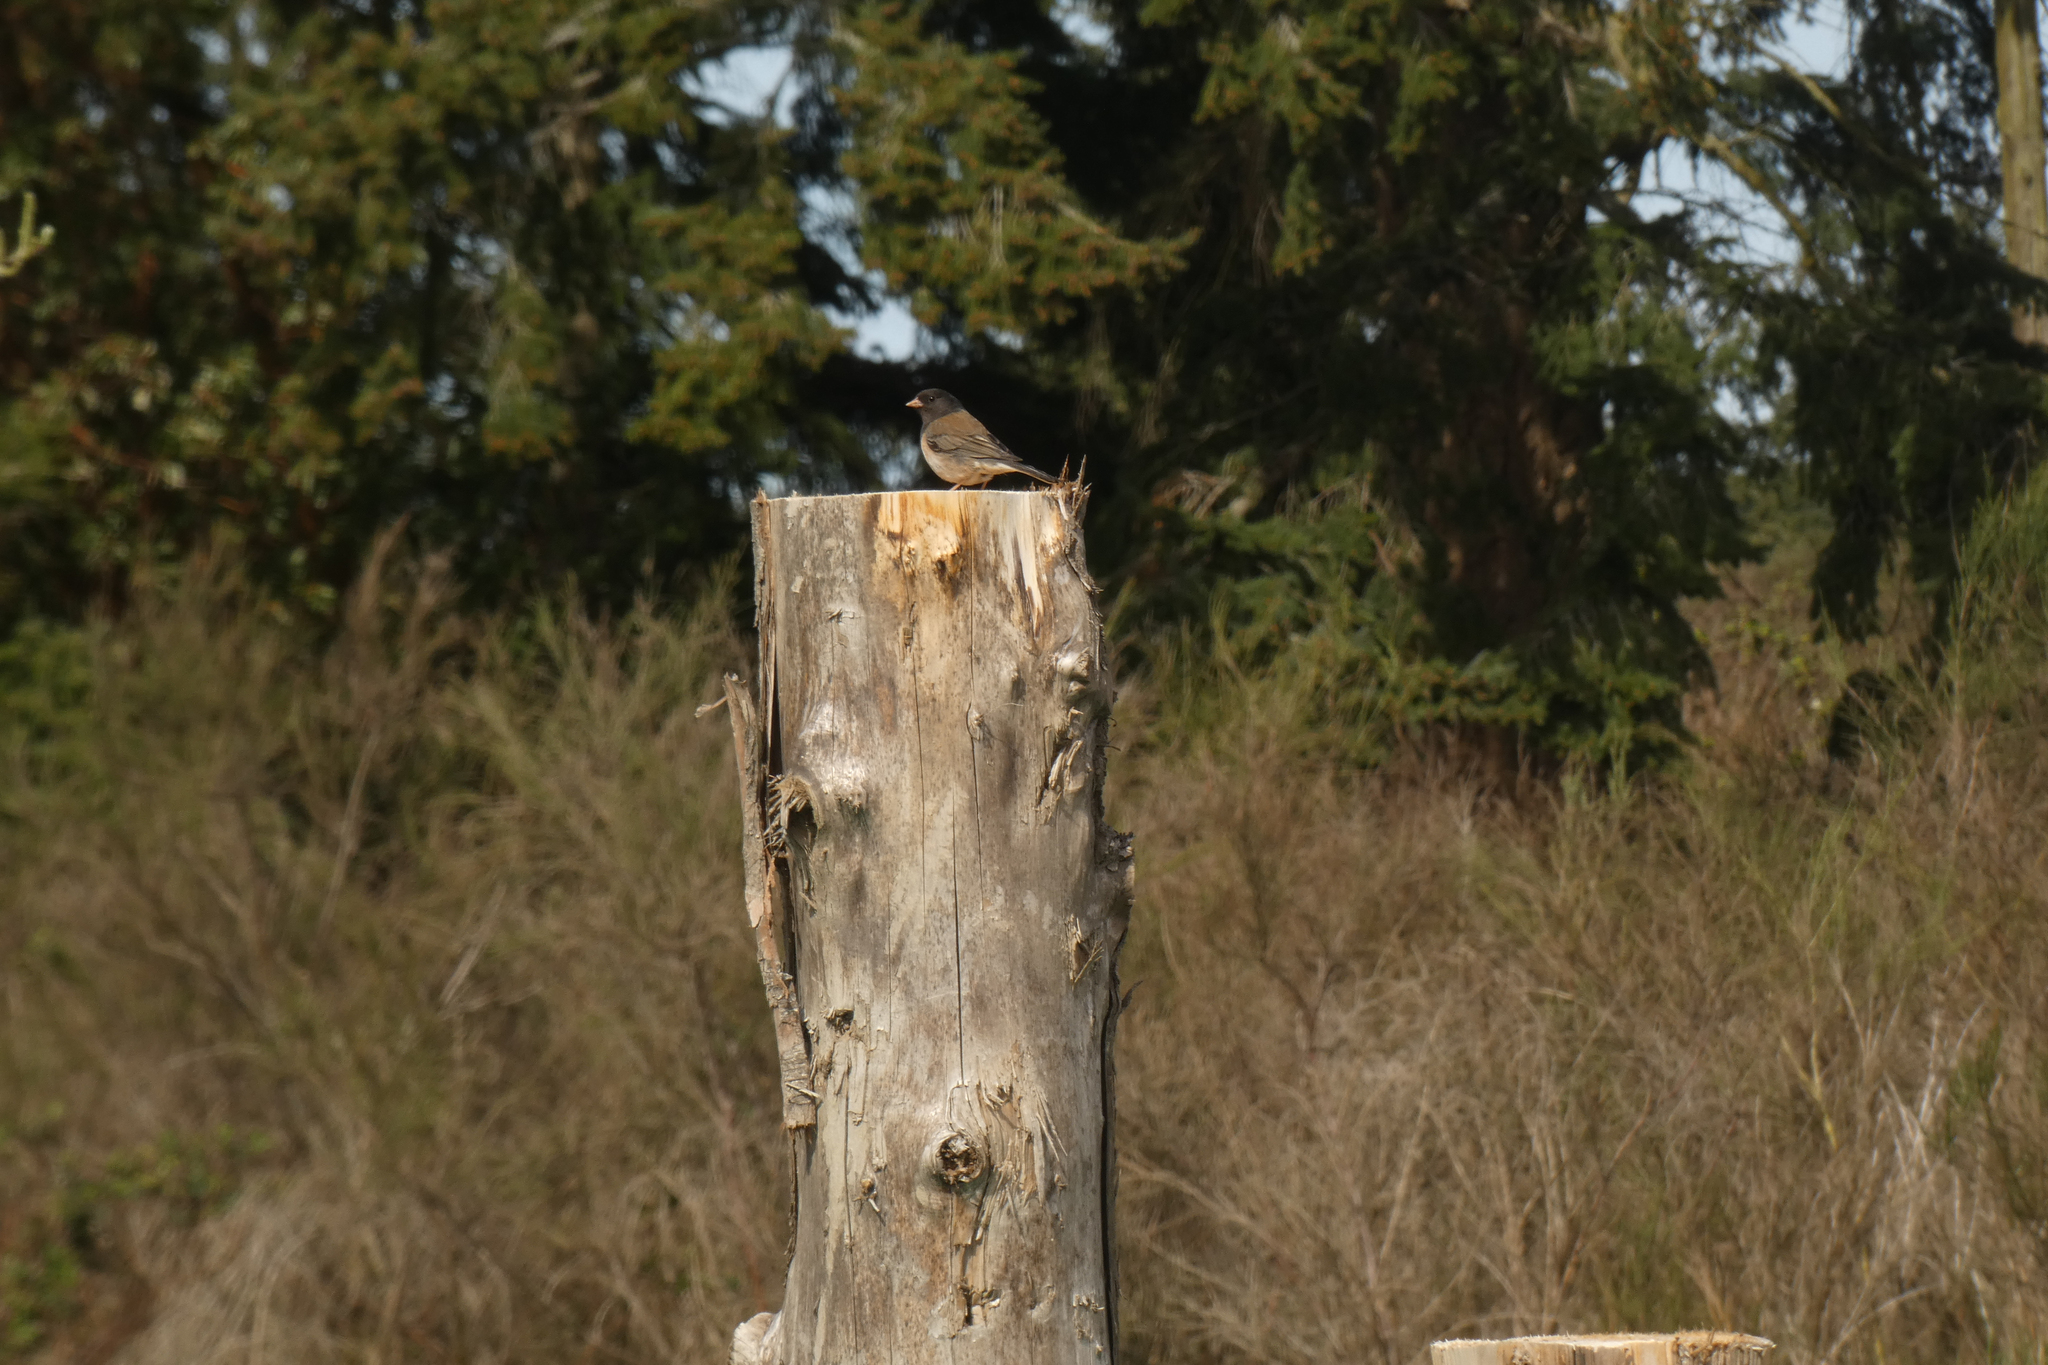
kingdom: Animalia
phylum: Chordata
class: Aves
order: Passeriformes
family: Passerellidae
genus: Junco
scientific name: Junco hyemalis
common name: Dark-eyed junco
